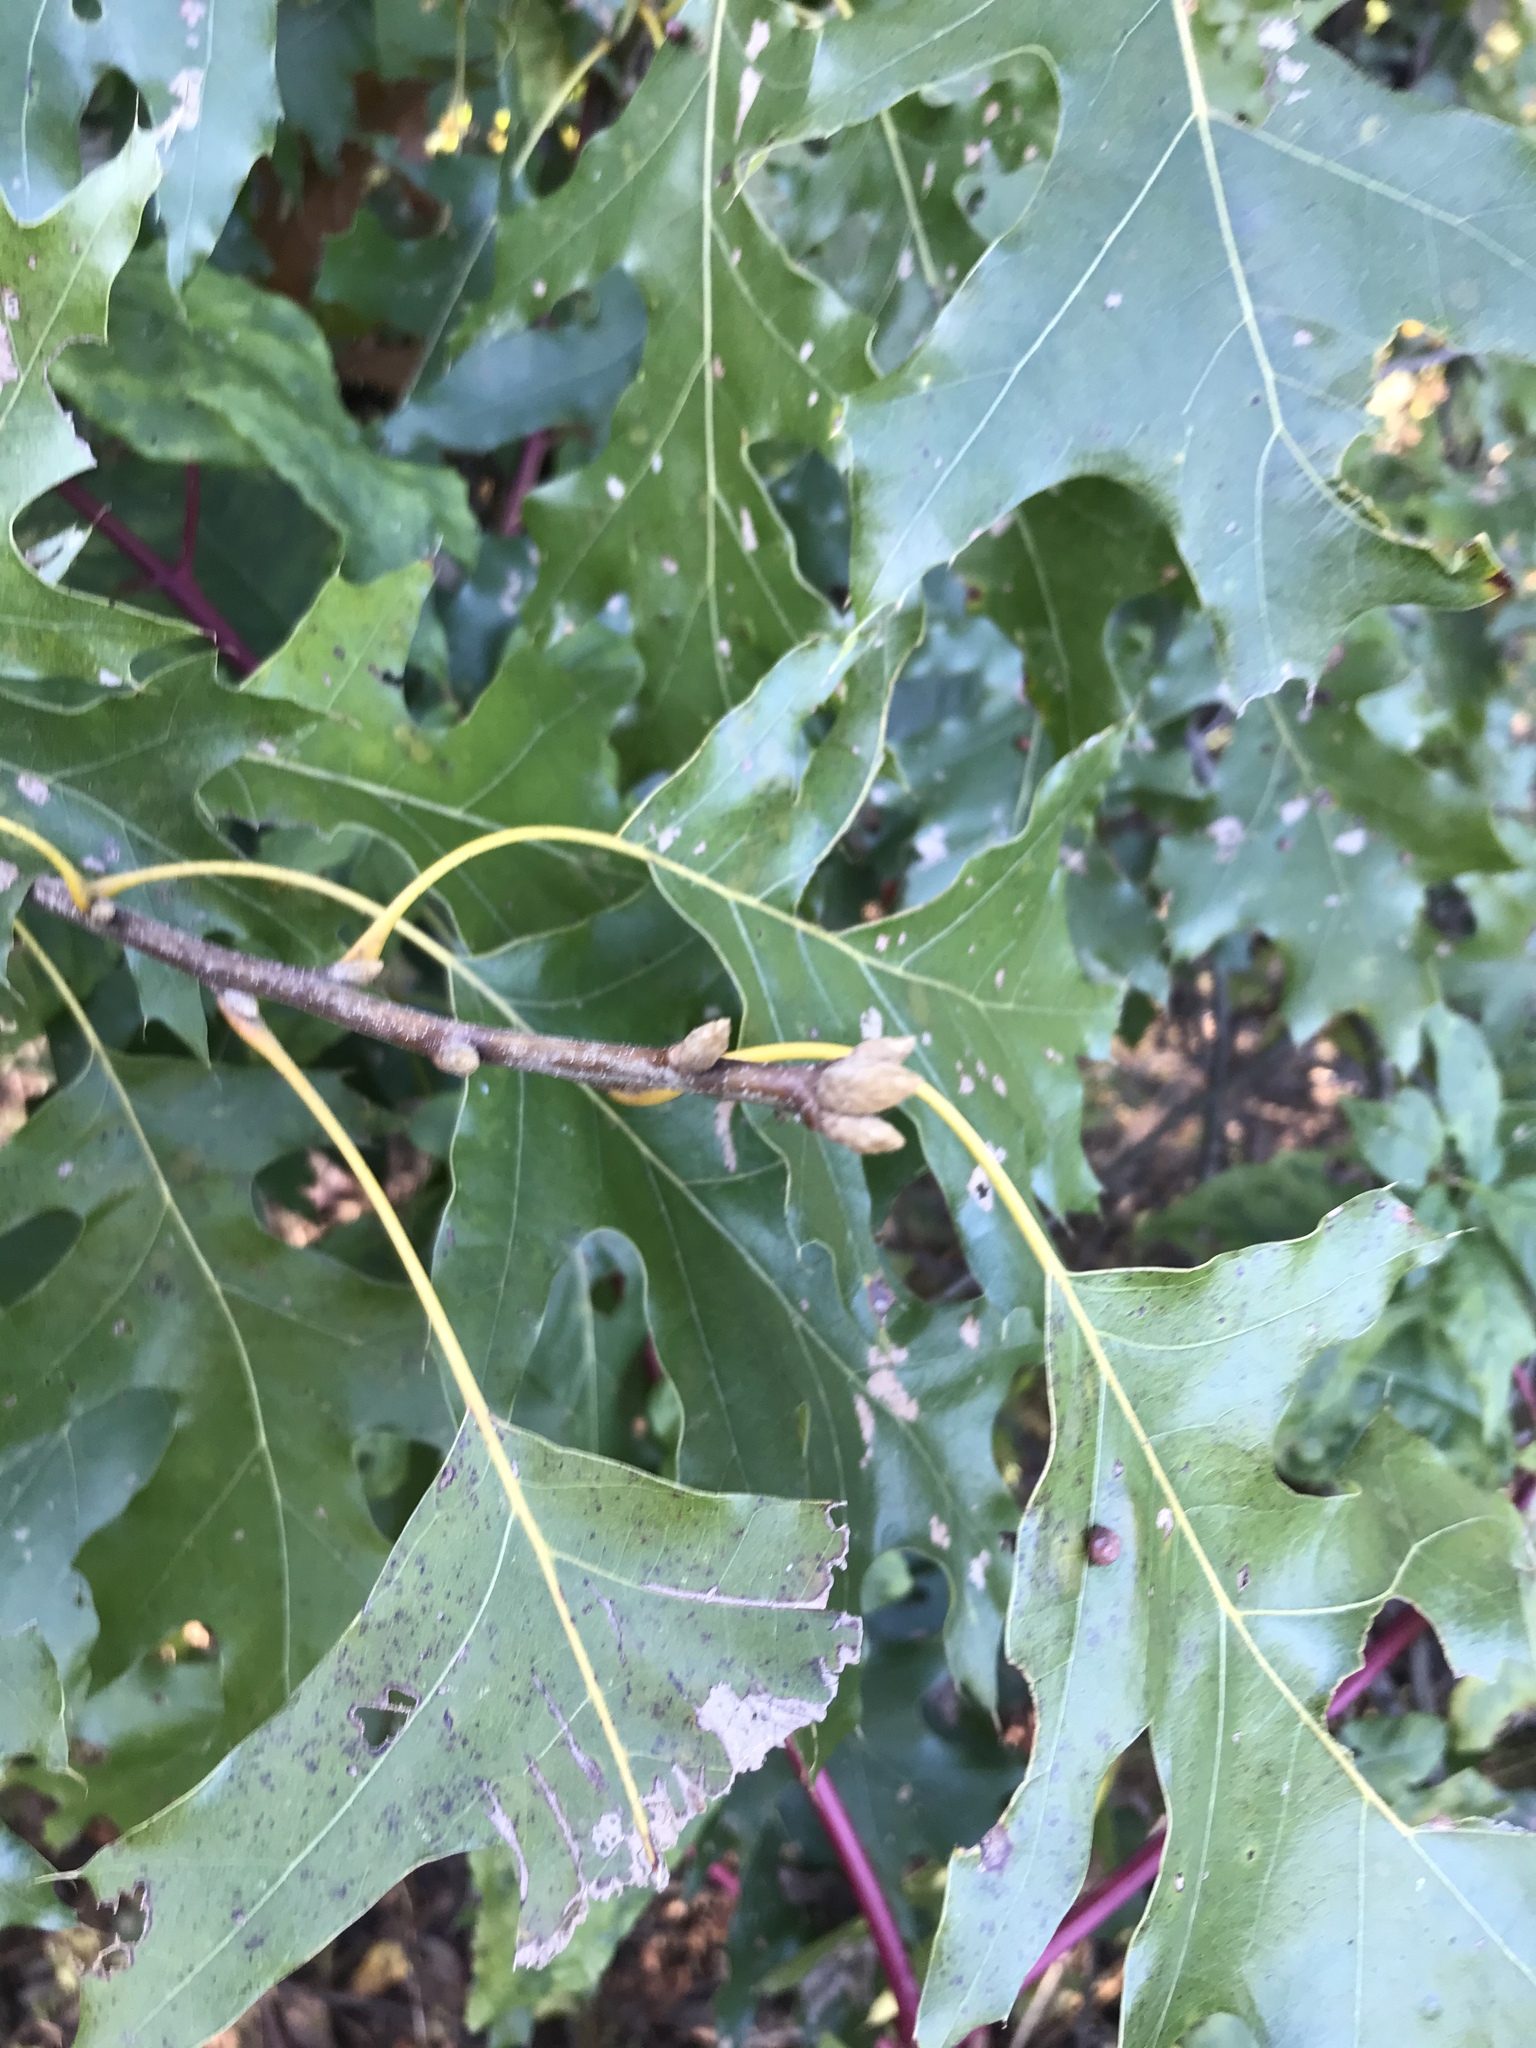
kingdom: Plantae
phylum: Tracheophyta
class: Magnoliopsida
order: Fagales
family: Fagaceae
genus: Quercus
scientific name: Quercus velutina
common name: Black oak
